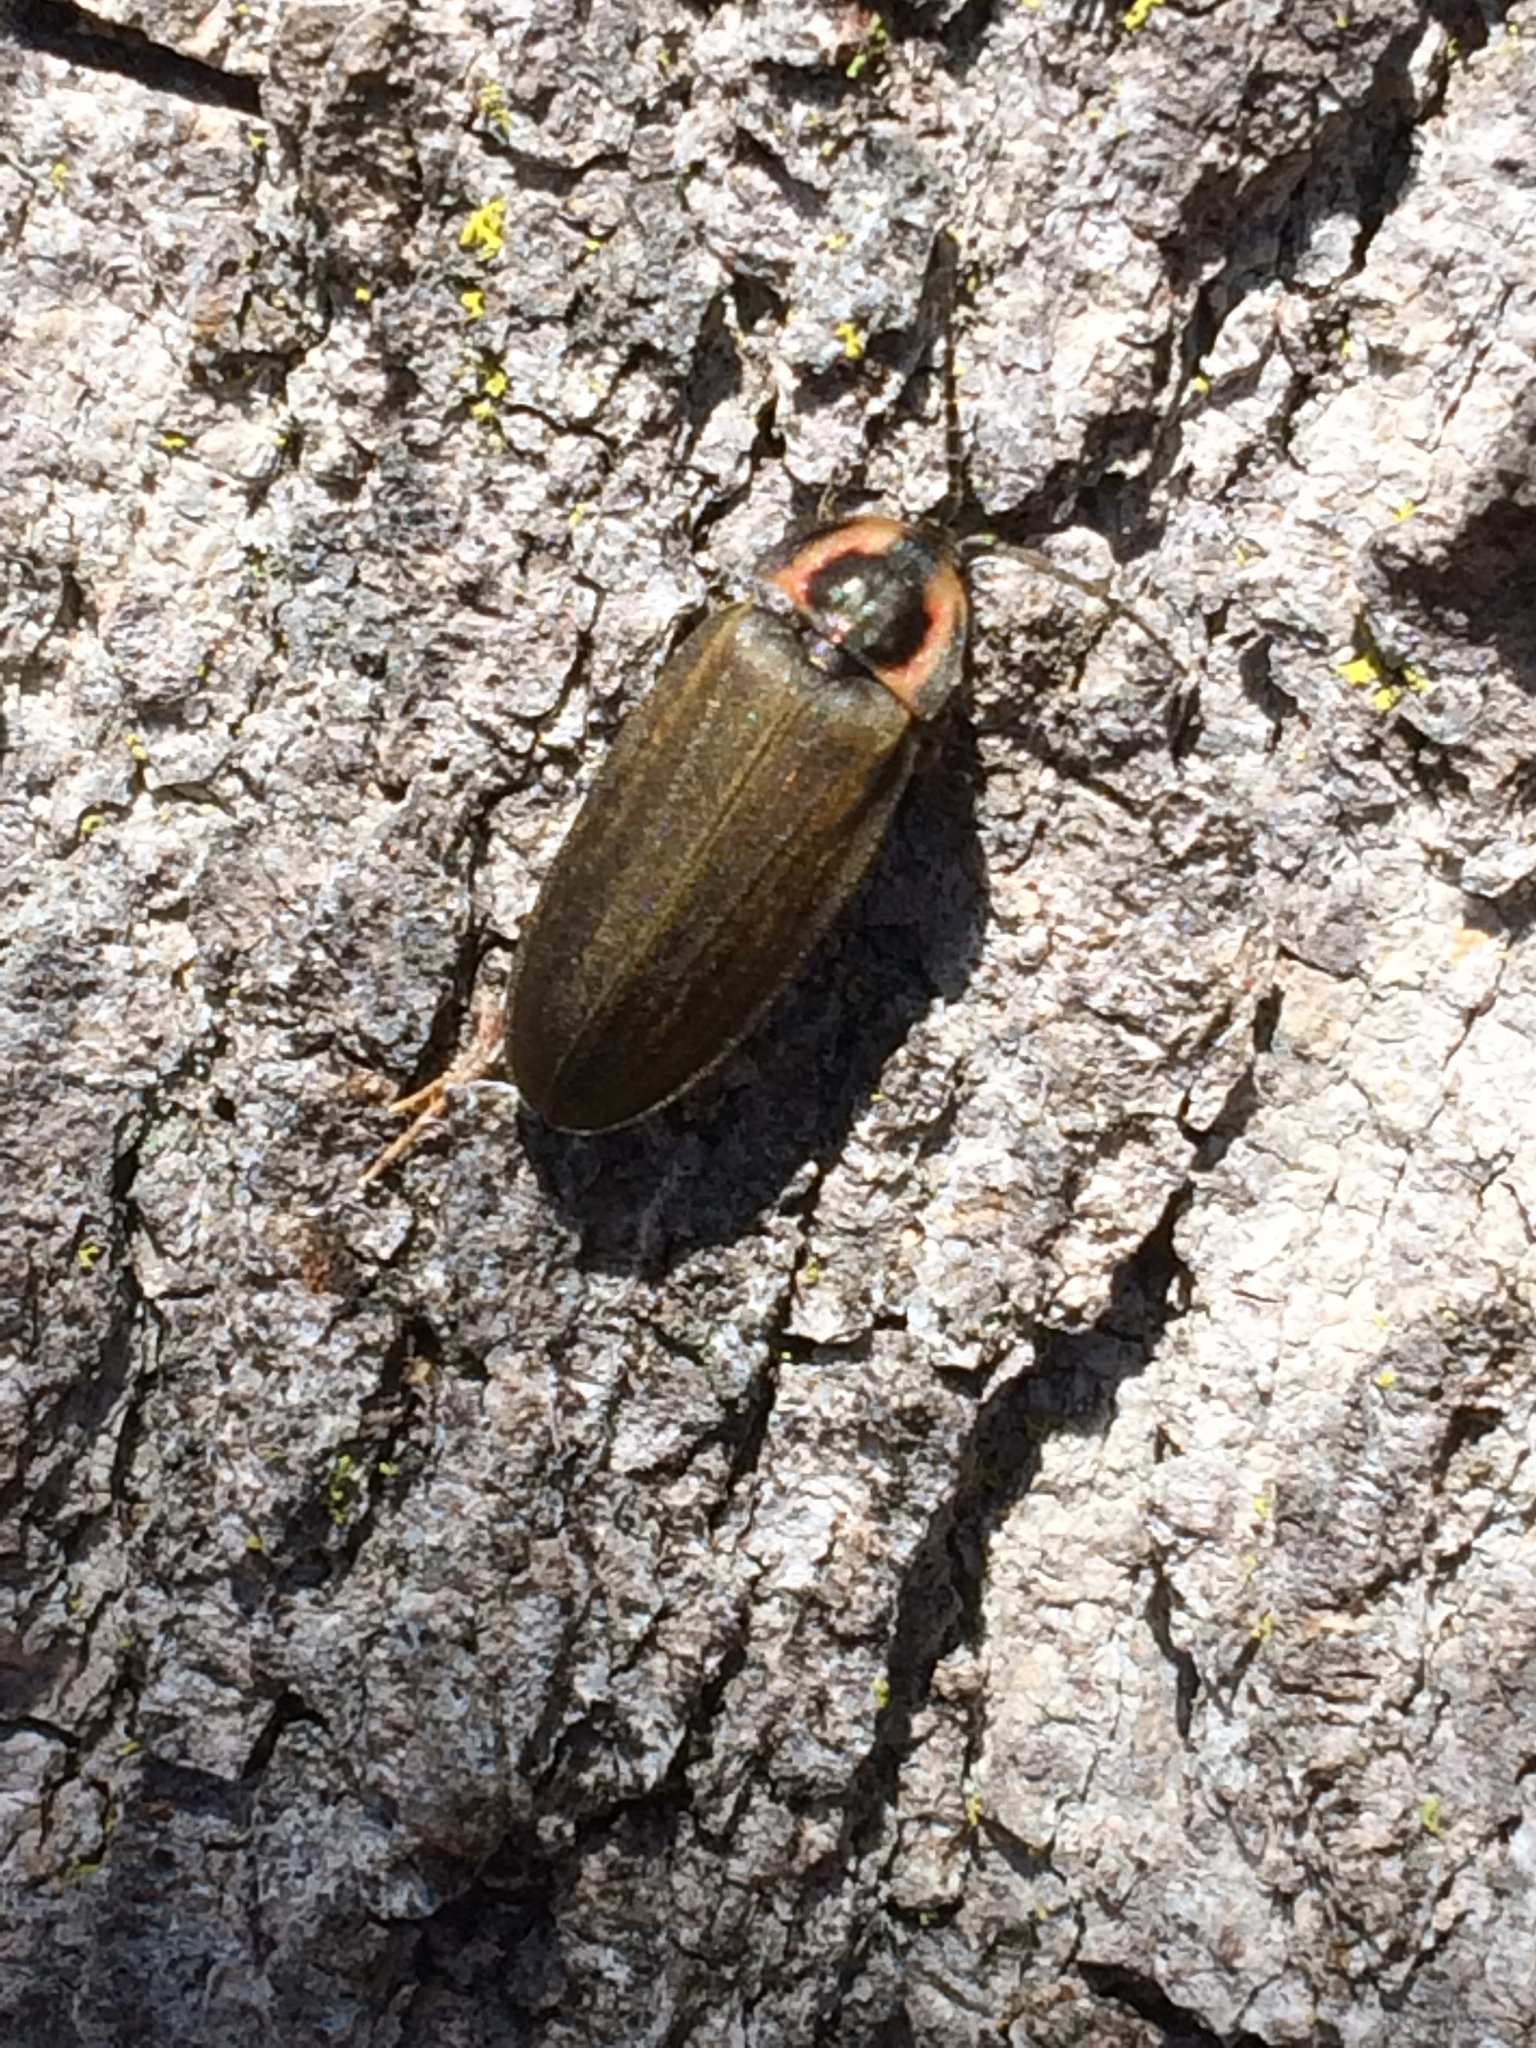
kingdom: Animalia
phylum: Arthropoda
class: Insecta
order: Coleoptera
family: Lampyridae
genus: Photinus
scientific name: Photinus corrusca
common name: Winter firefly
